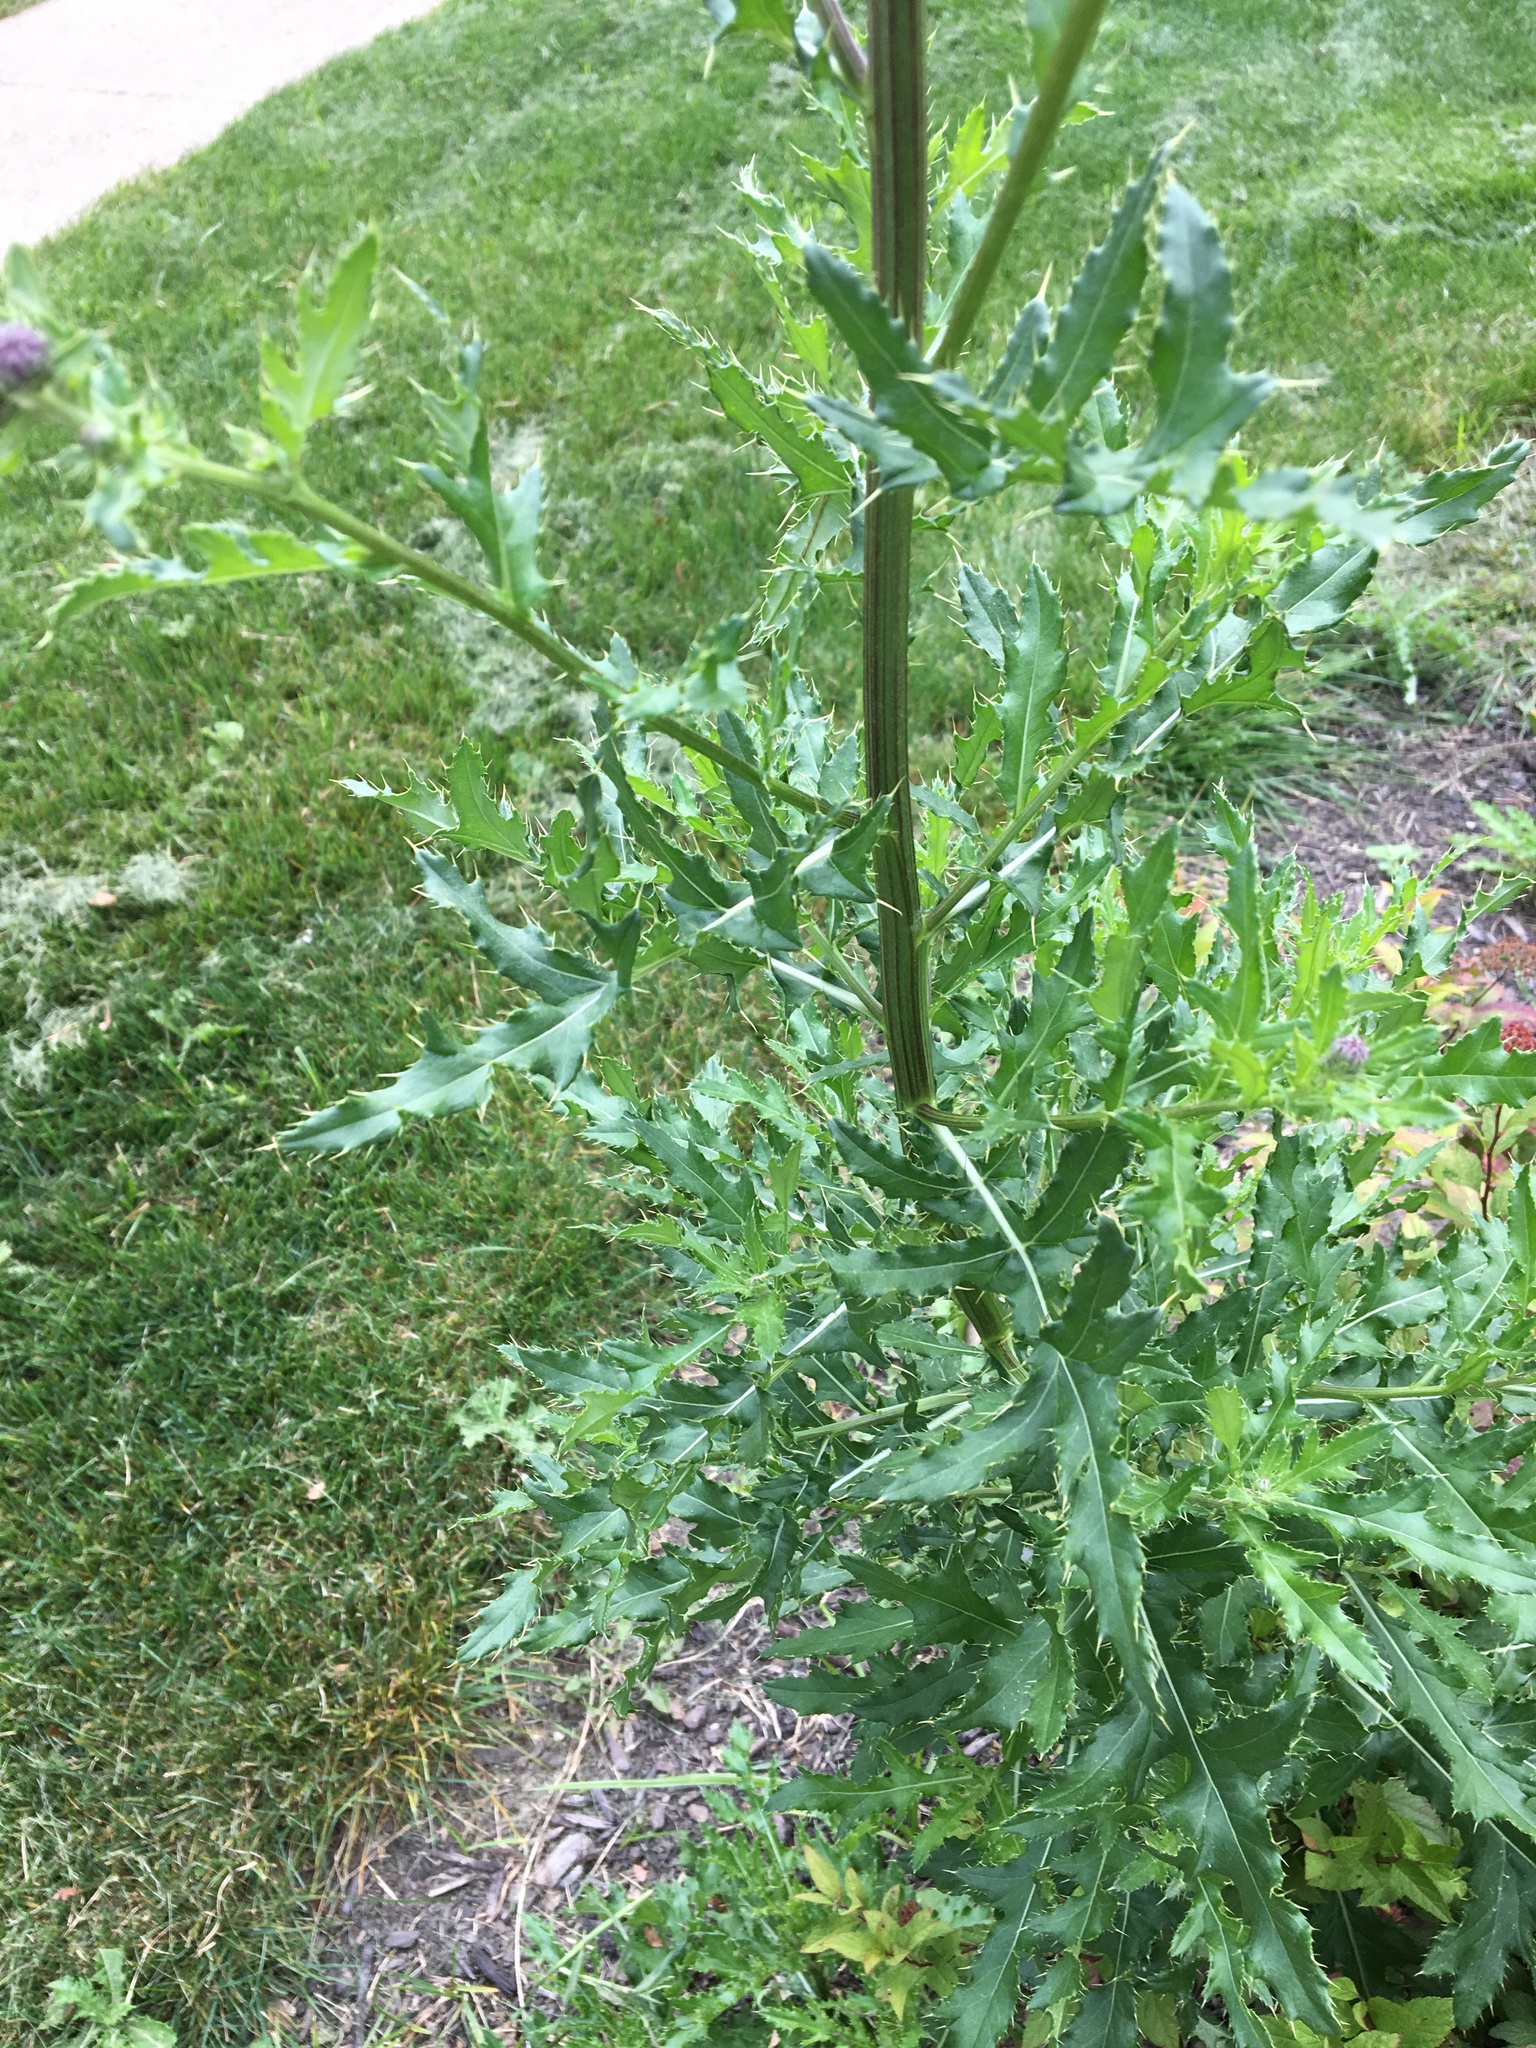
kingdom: Plantae
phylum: Tracheophyta
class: Magnoliopsida
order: Asterales
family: Asteraceae
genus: Cirsium
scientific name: Cirsium arvense
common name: Creeping thistle
